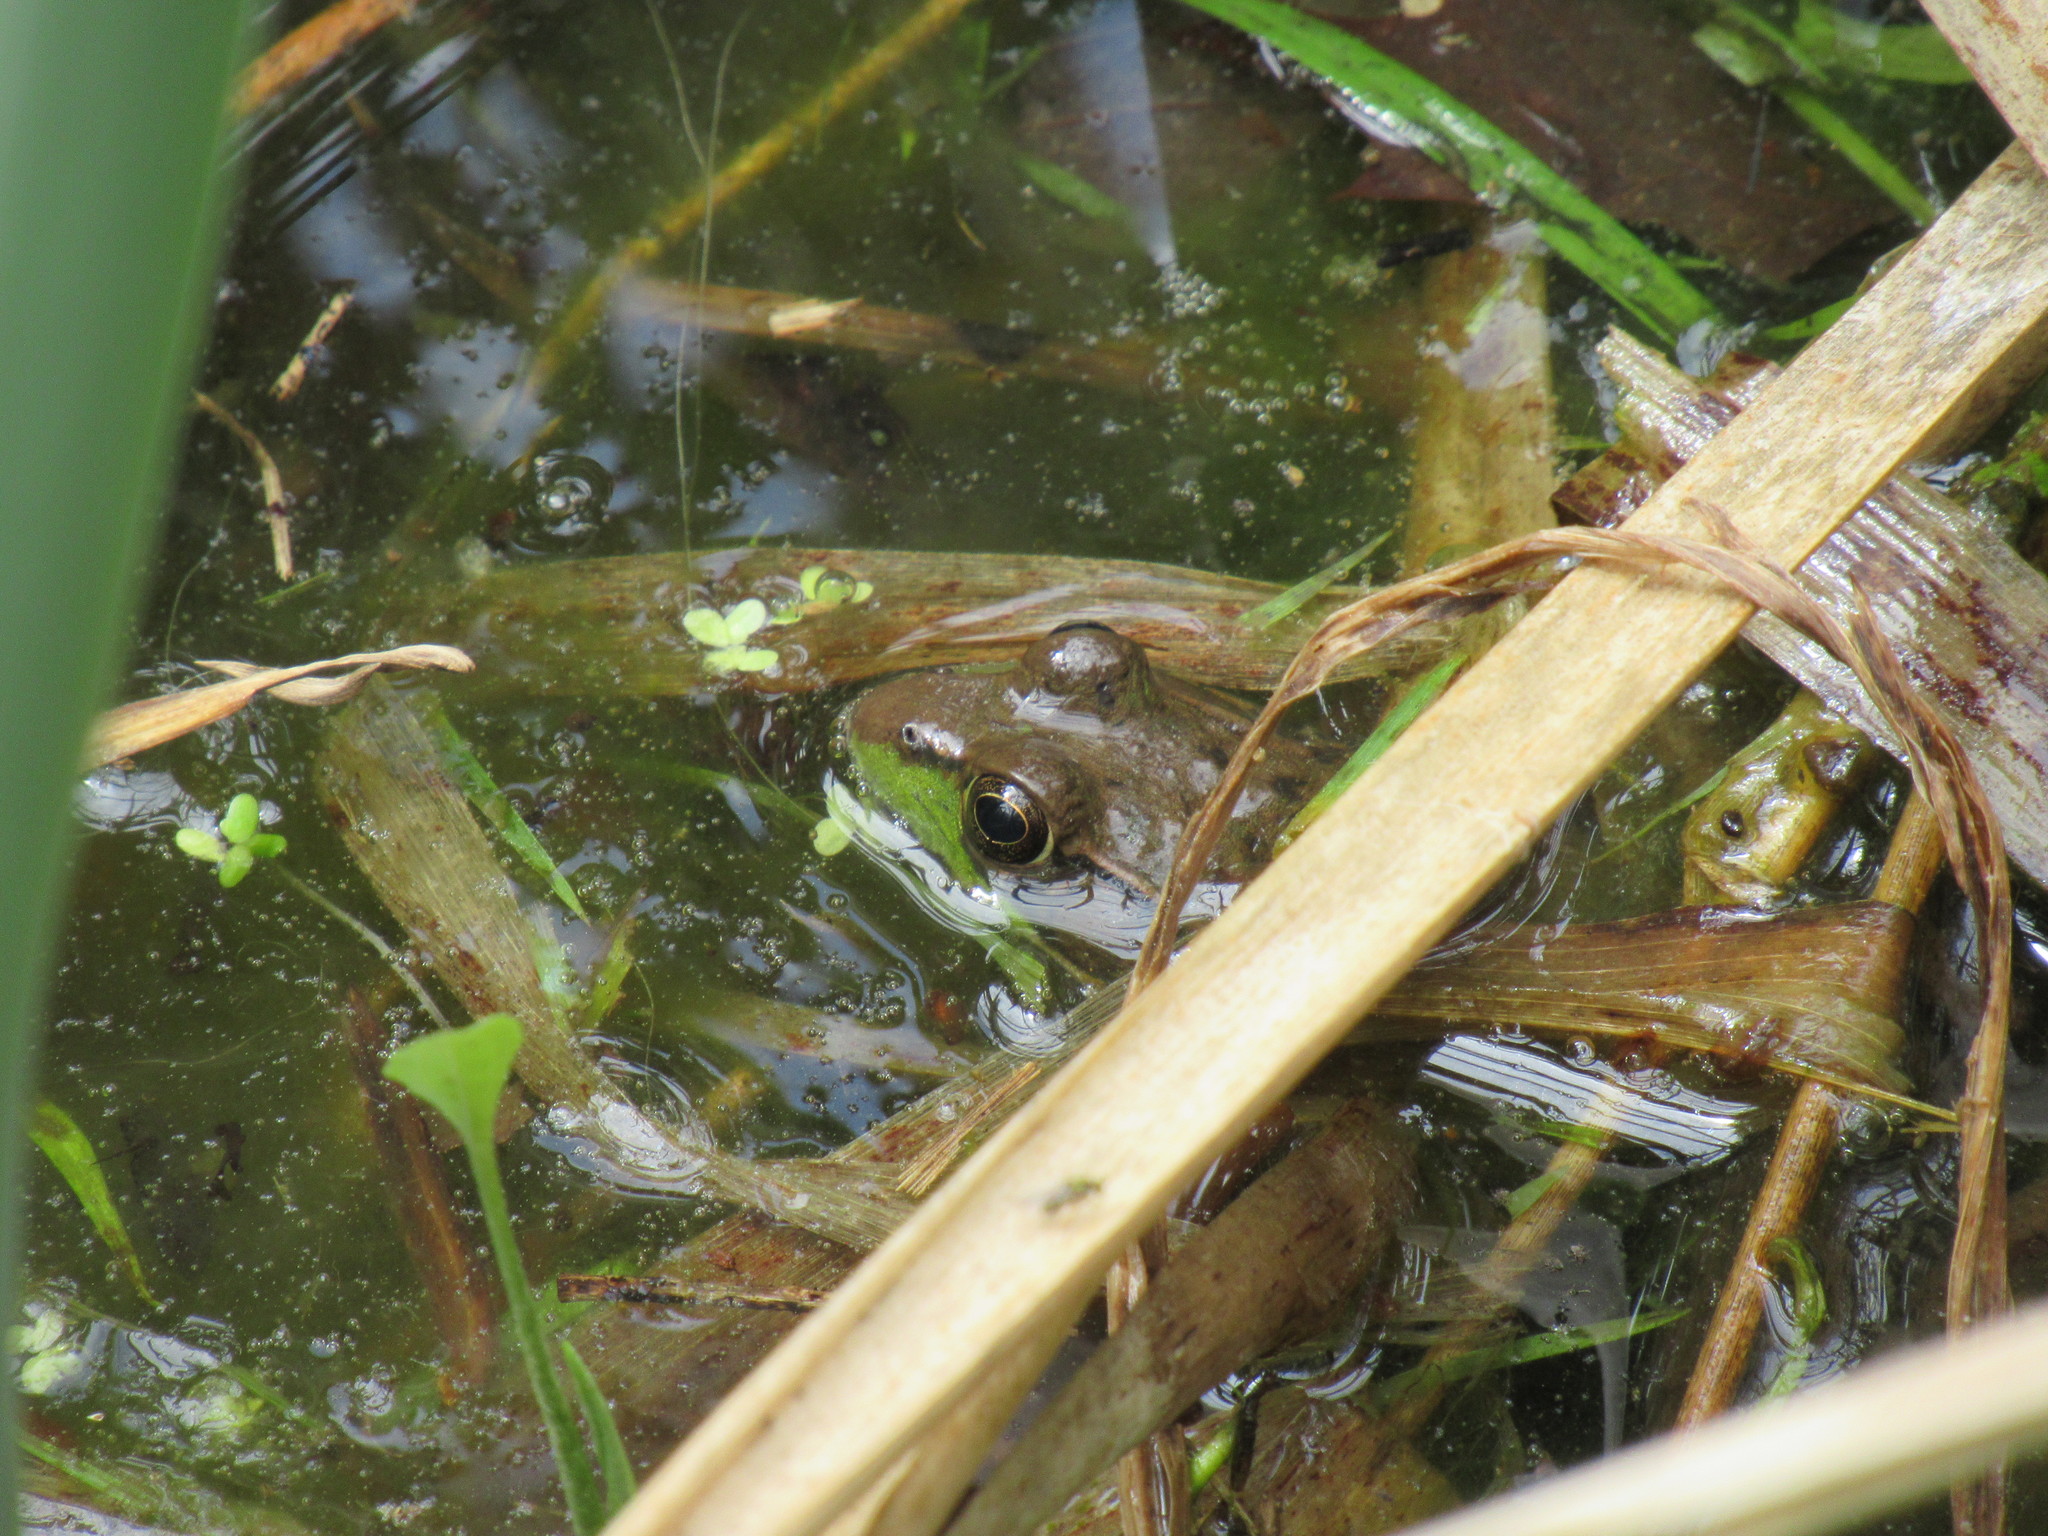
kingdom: Animalia
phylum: Chordata
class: Amphibia
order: Anura
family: Ranidae
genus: Lithobates
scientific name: Lithobates clamitans
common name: Green frog
